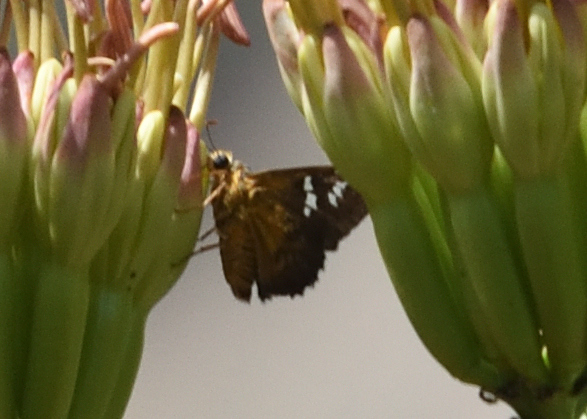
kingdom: Animalia
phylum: Arthropoda
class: Insecta
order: Lepidoptera
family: Hesperiidae
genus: Pyrrhopyge
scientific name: Pyrrhopyge araxes
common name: Dull firetip
